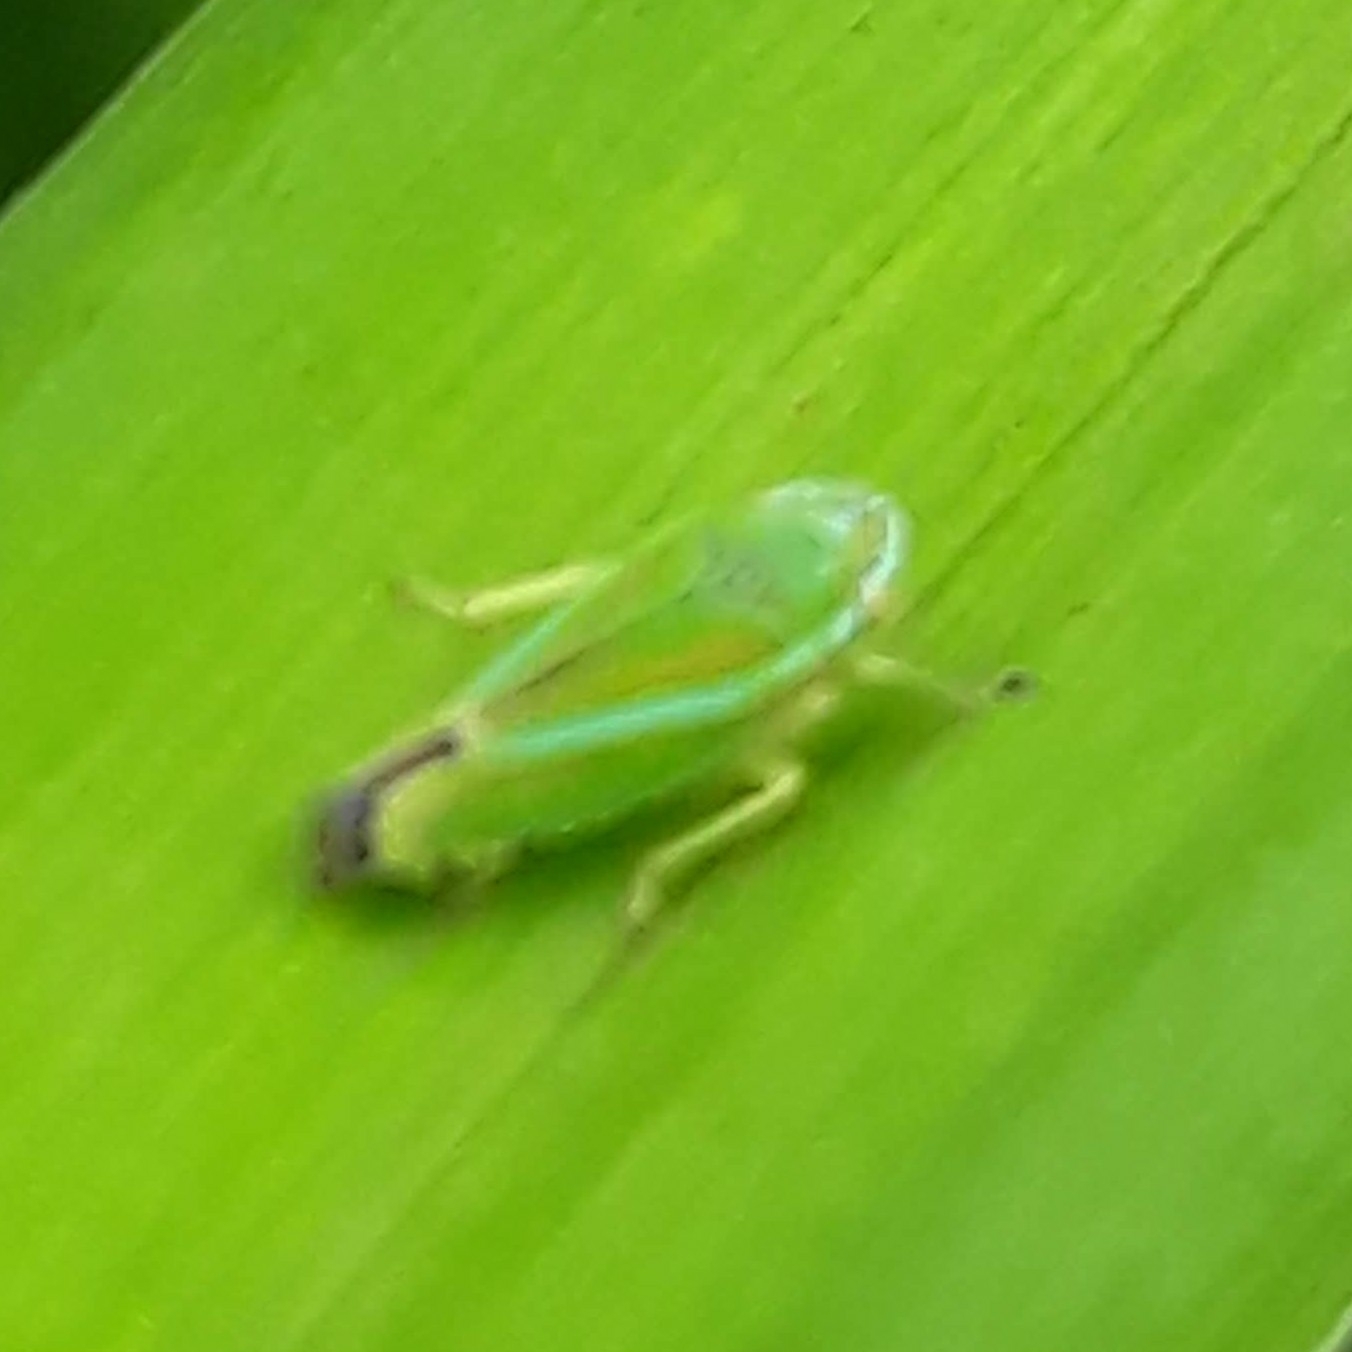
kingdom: Animalia
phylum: Arthropoda
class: Insecta
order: Hemiptera
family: Cicadellidae
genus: Graphocephala
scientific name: Graphocephala versuta
